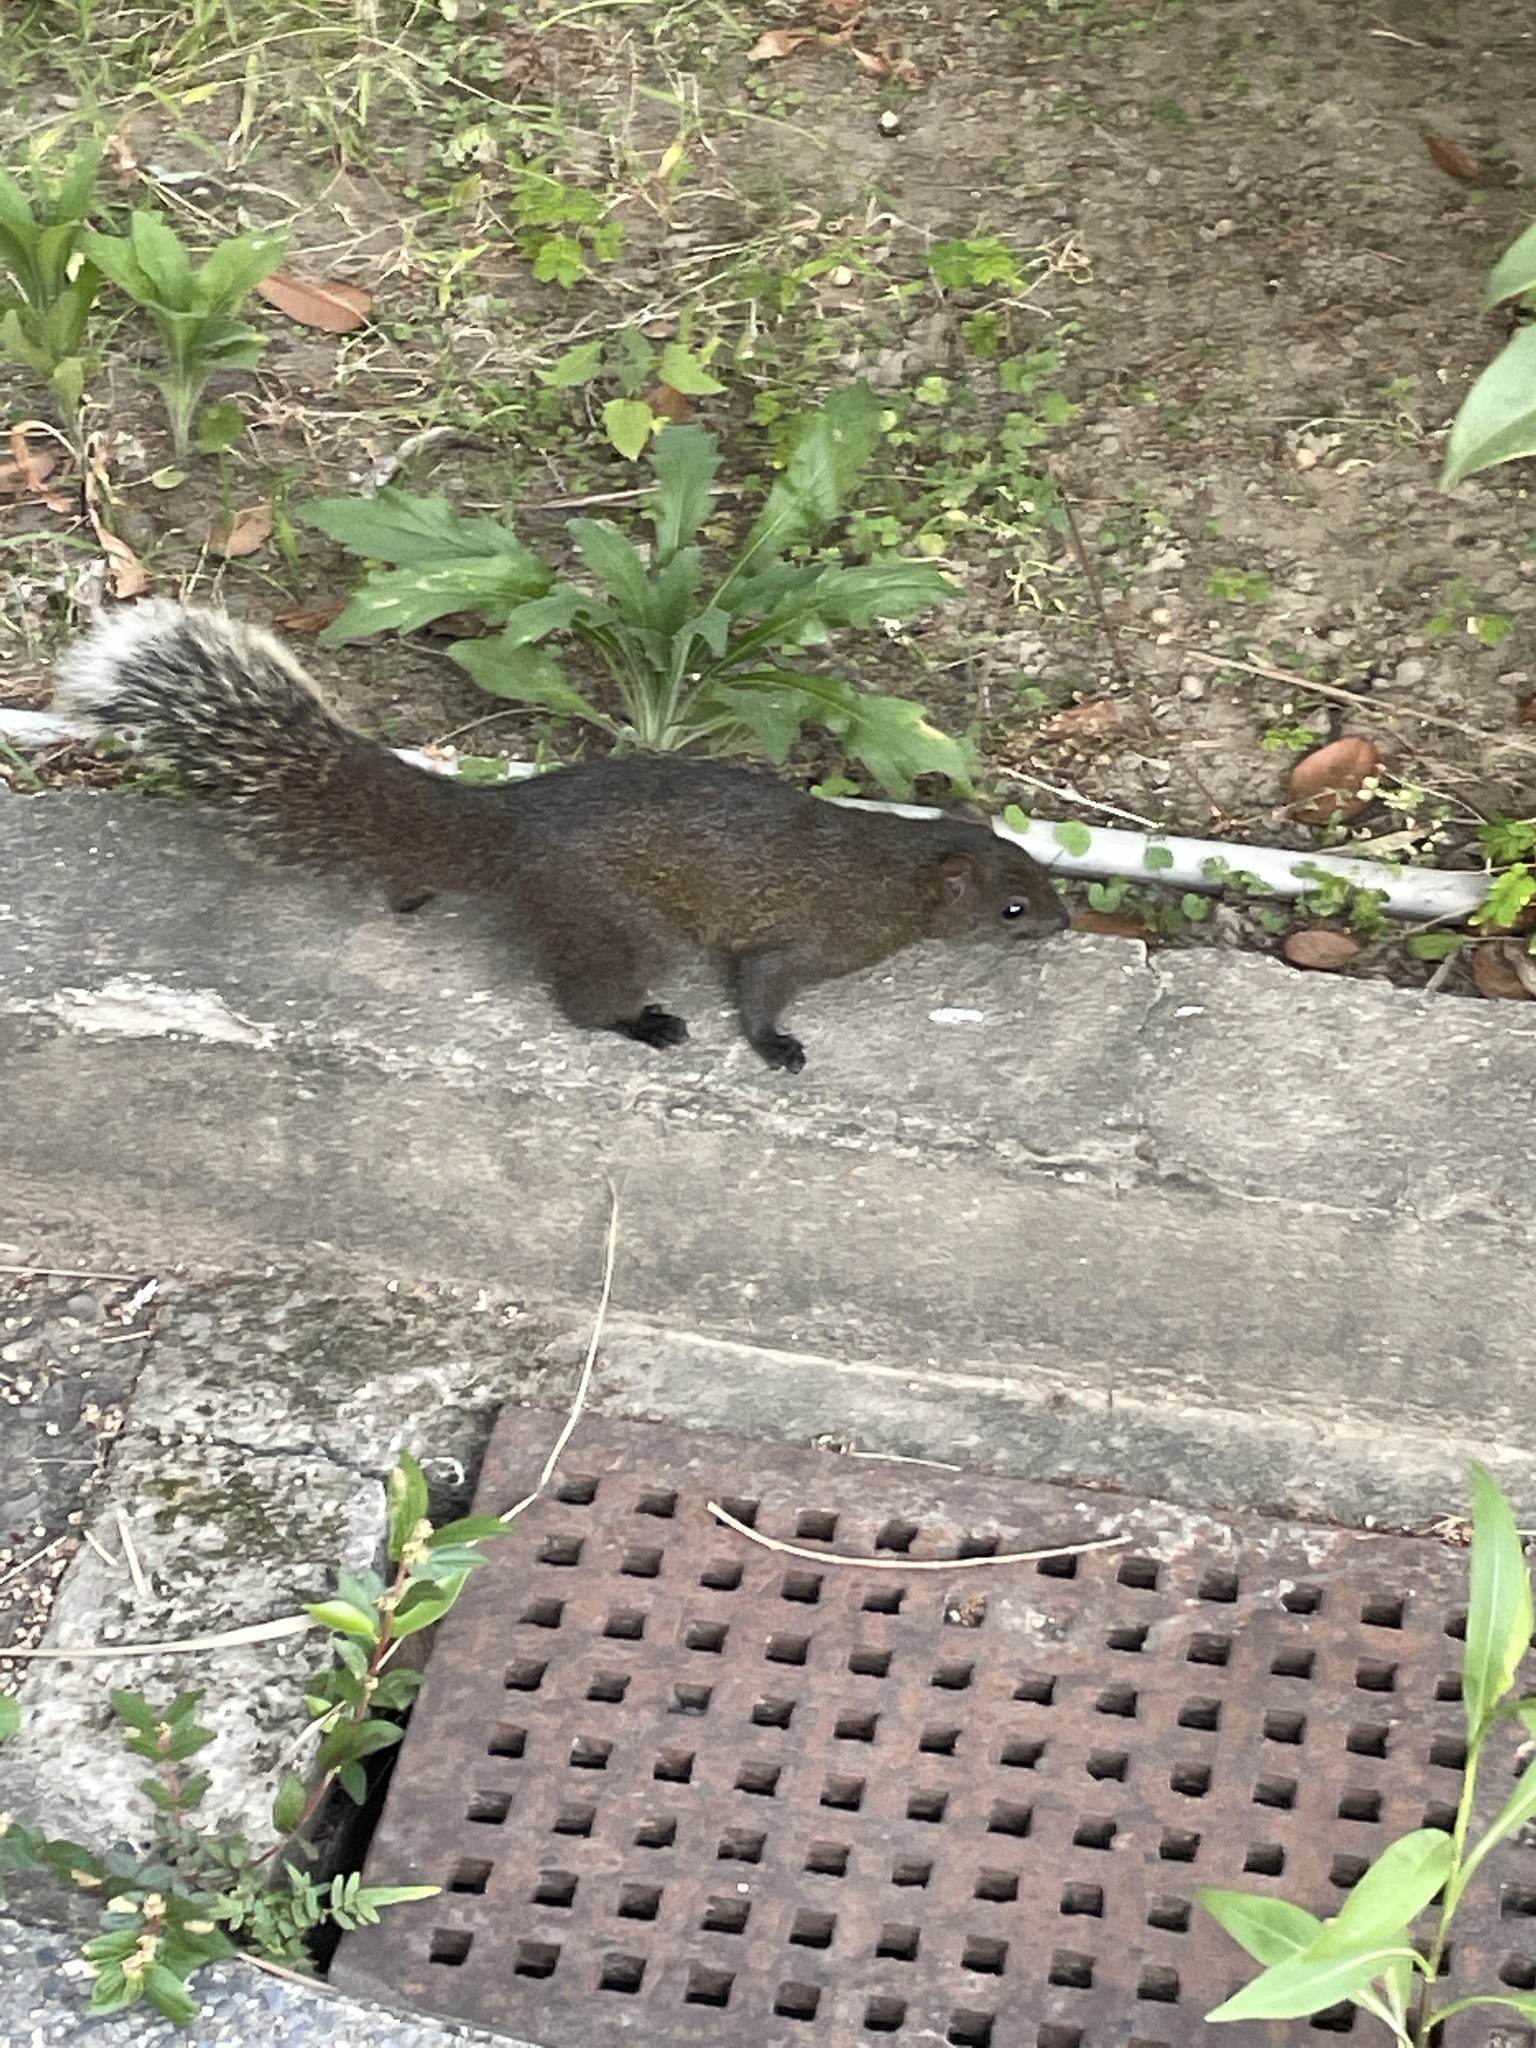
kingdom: Animalia
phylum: Chordata
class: Mammalia
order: Rodentia
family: Sciuridae
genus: Callosciurus
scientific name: Callosciurus erythraeus
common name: Pallas's squirrel
